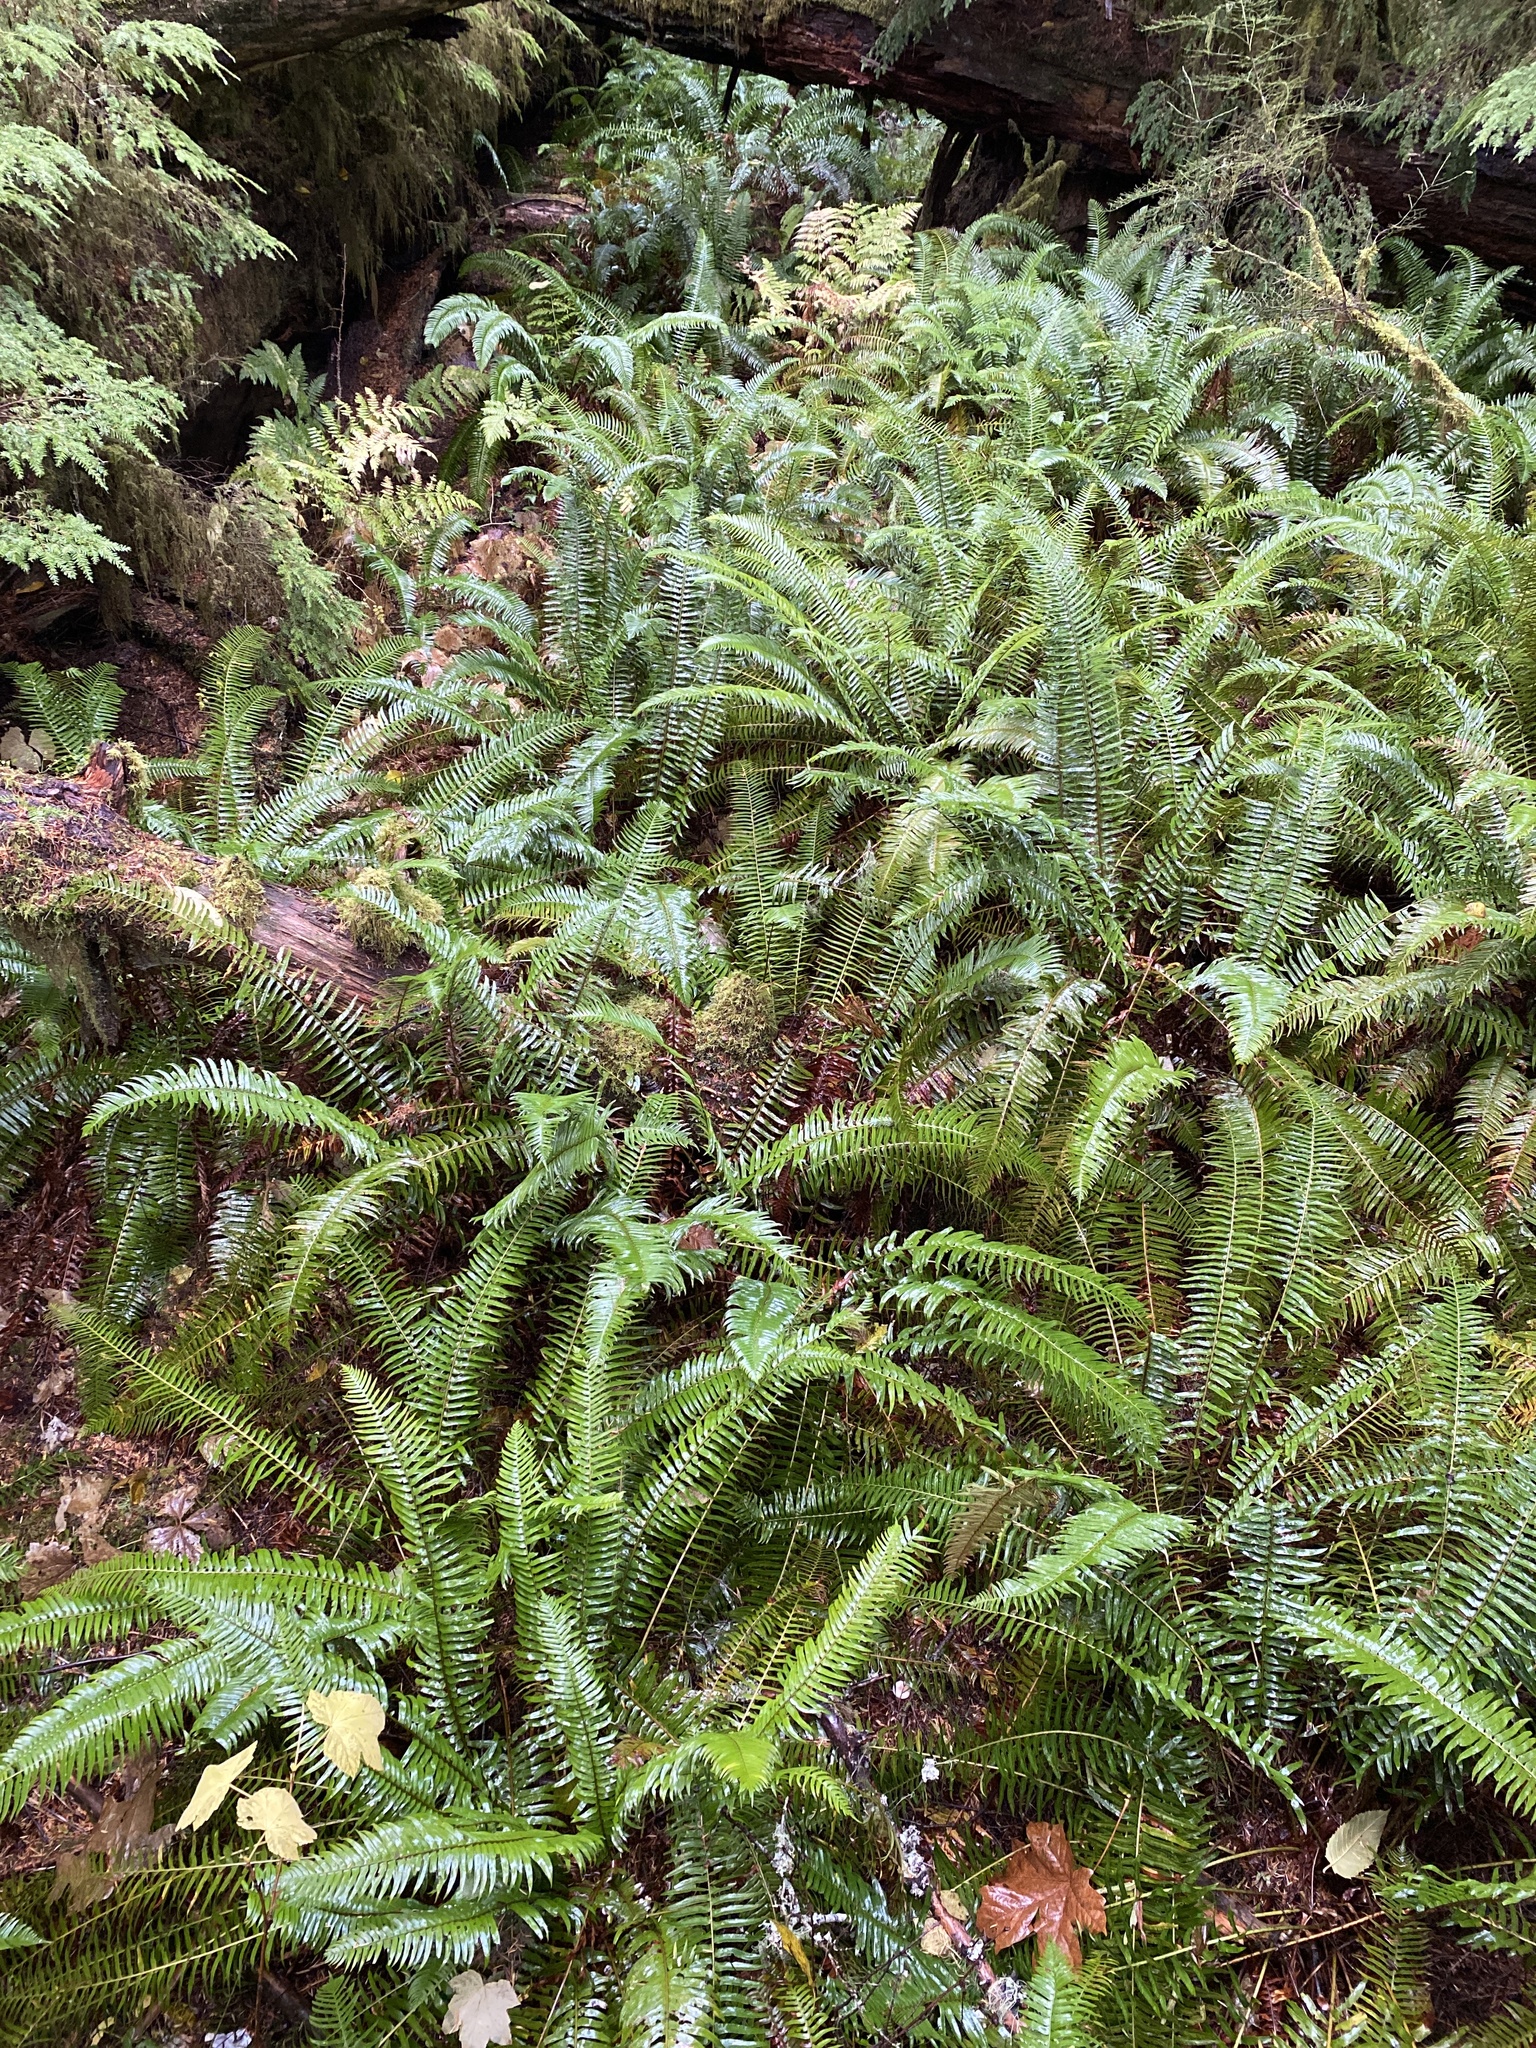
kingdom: Plantae
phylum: Tracheophyta
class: Polypodiopsida
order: Polypodiales
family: Dryopteridaceae
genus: Polystichum
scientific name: Polystichum munitum
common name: Western sword-fern
